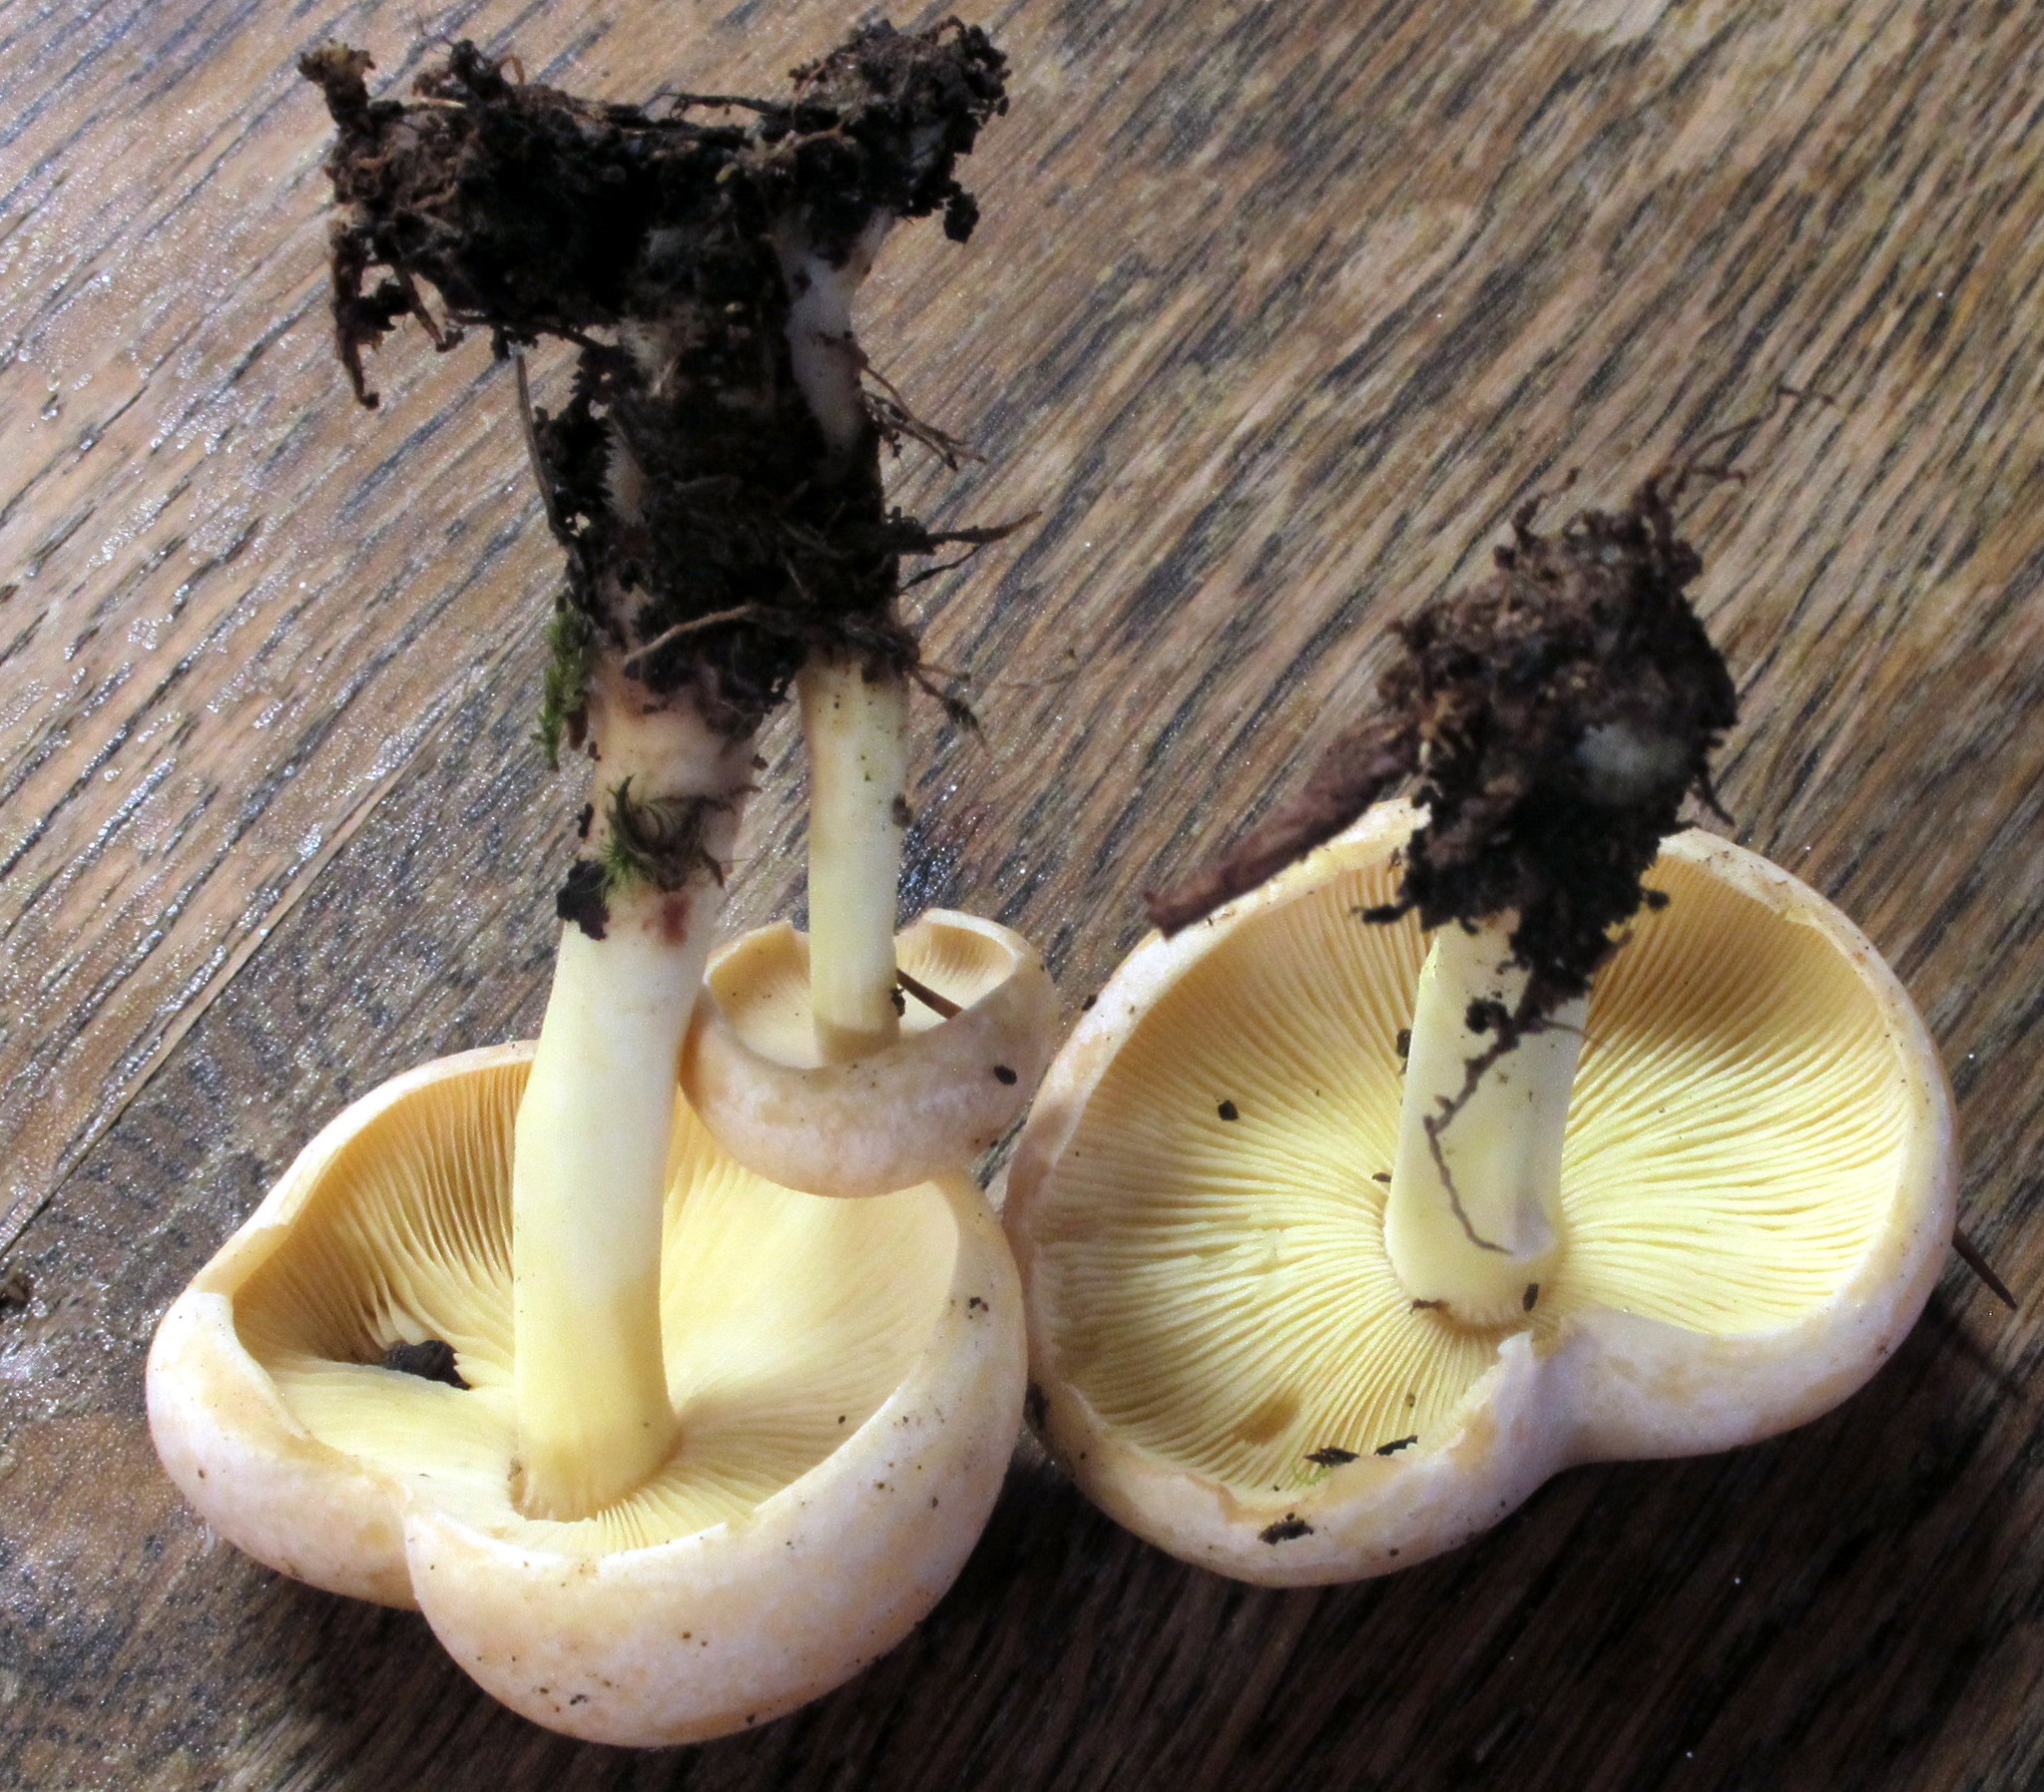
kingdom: Fungi
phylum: Basidiomycota
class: Agaricomycetes
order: Agaricales
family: Omphalotaceae
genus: Rhodocollybia
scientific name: Rhodocollybia maculata
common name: Spotted tough-shank
